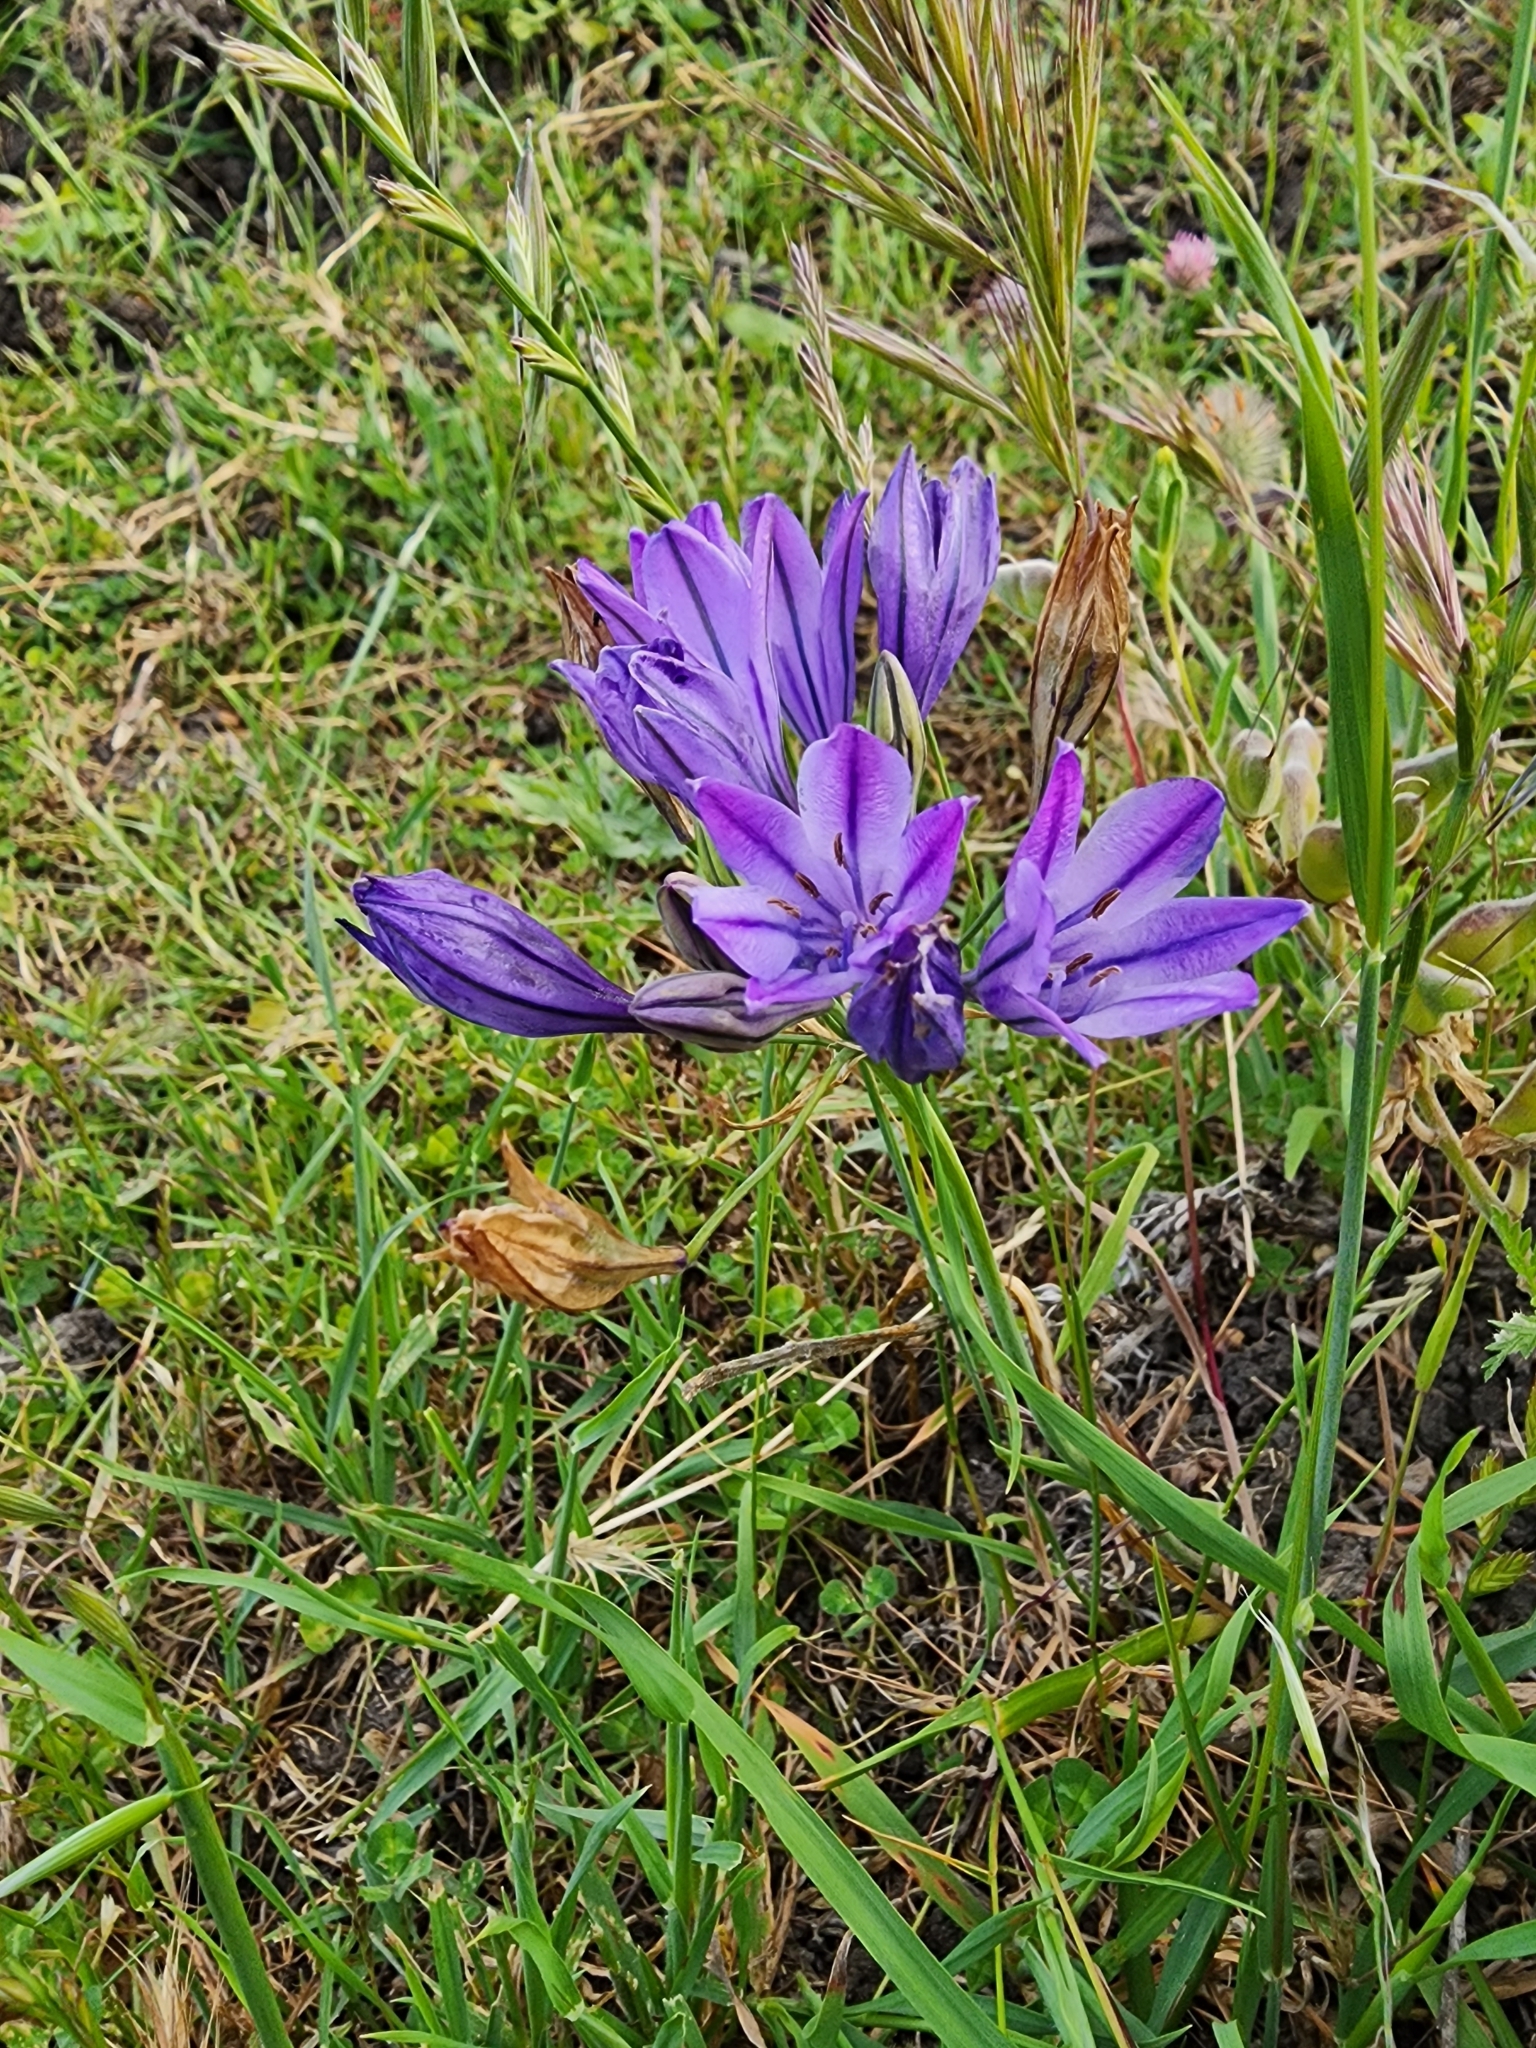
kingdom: Plantae
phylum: Tracheophyta
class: Liliopsida
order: Asparagales
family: Asparagaceae
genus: Triteleia
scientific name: Triteleia laxa
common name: Triplet-lily
